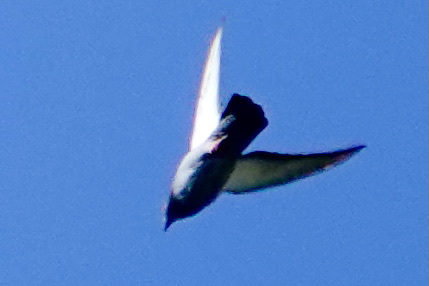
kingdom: Animalia
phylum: Chordata
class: Aves
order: Passeriformes
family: Hirundinidae
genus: Progne
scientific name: Progne subis
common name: Purple martin
